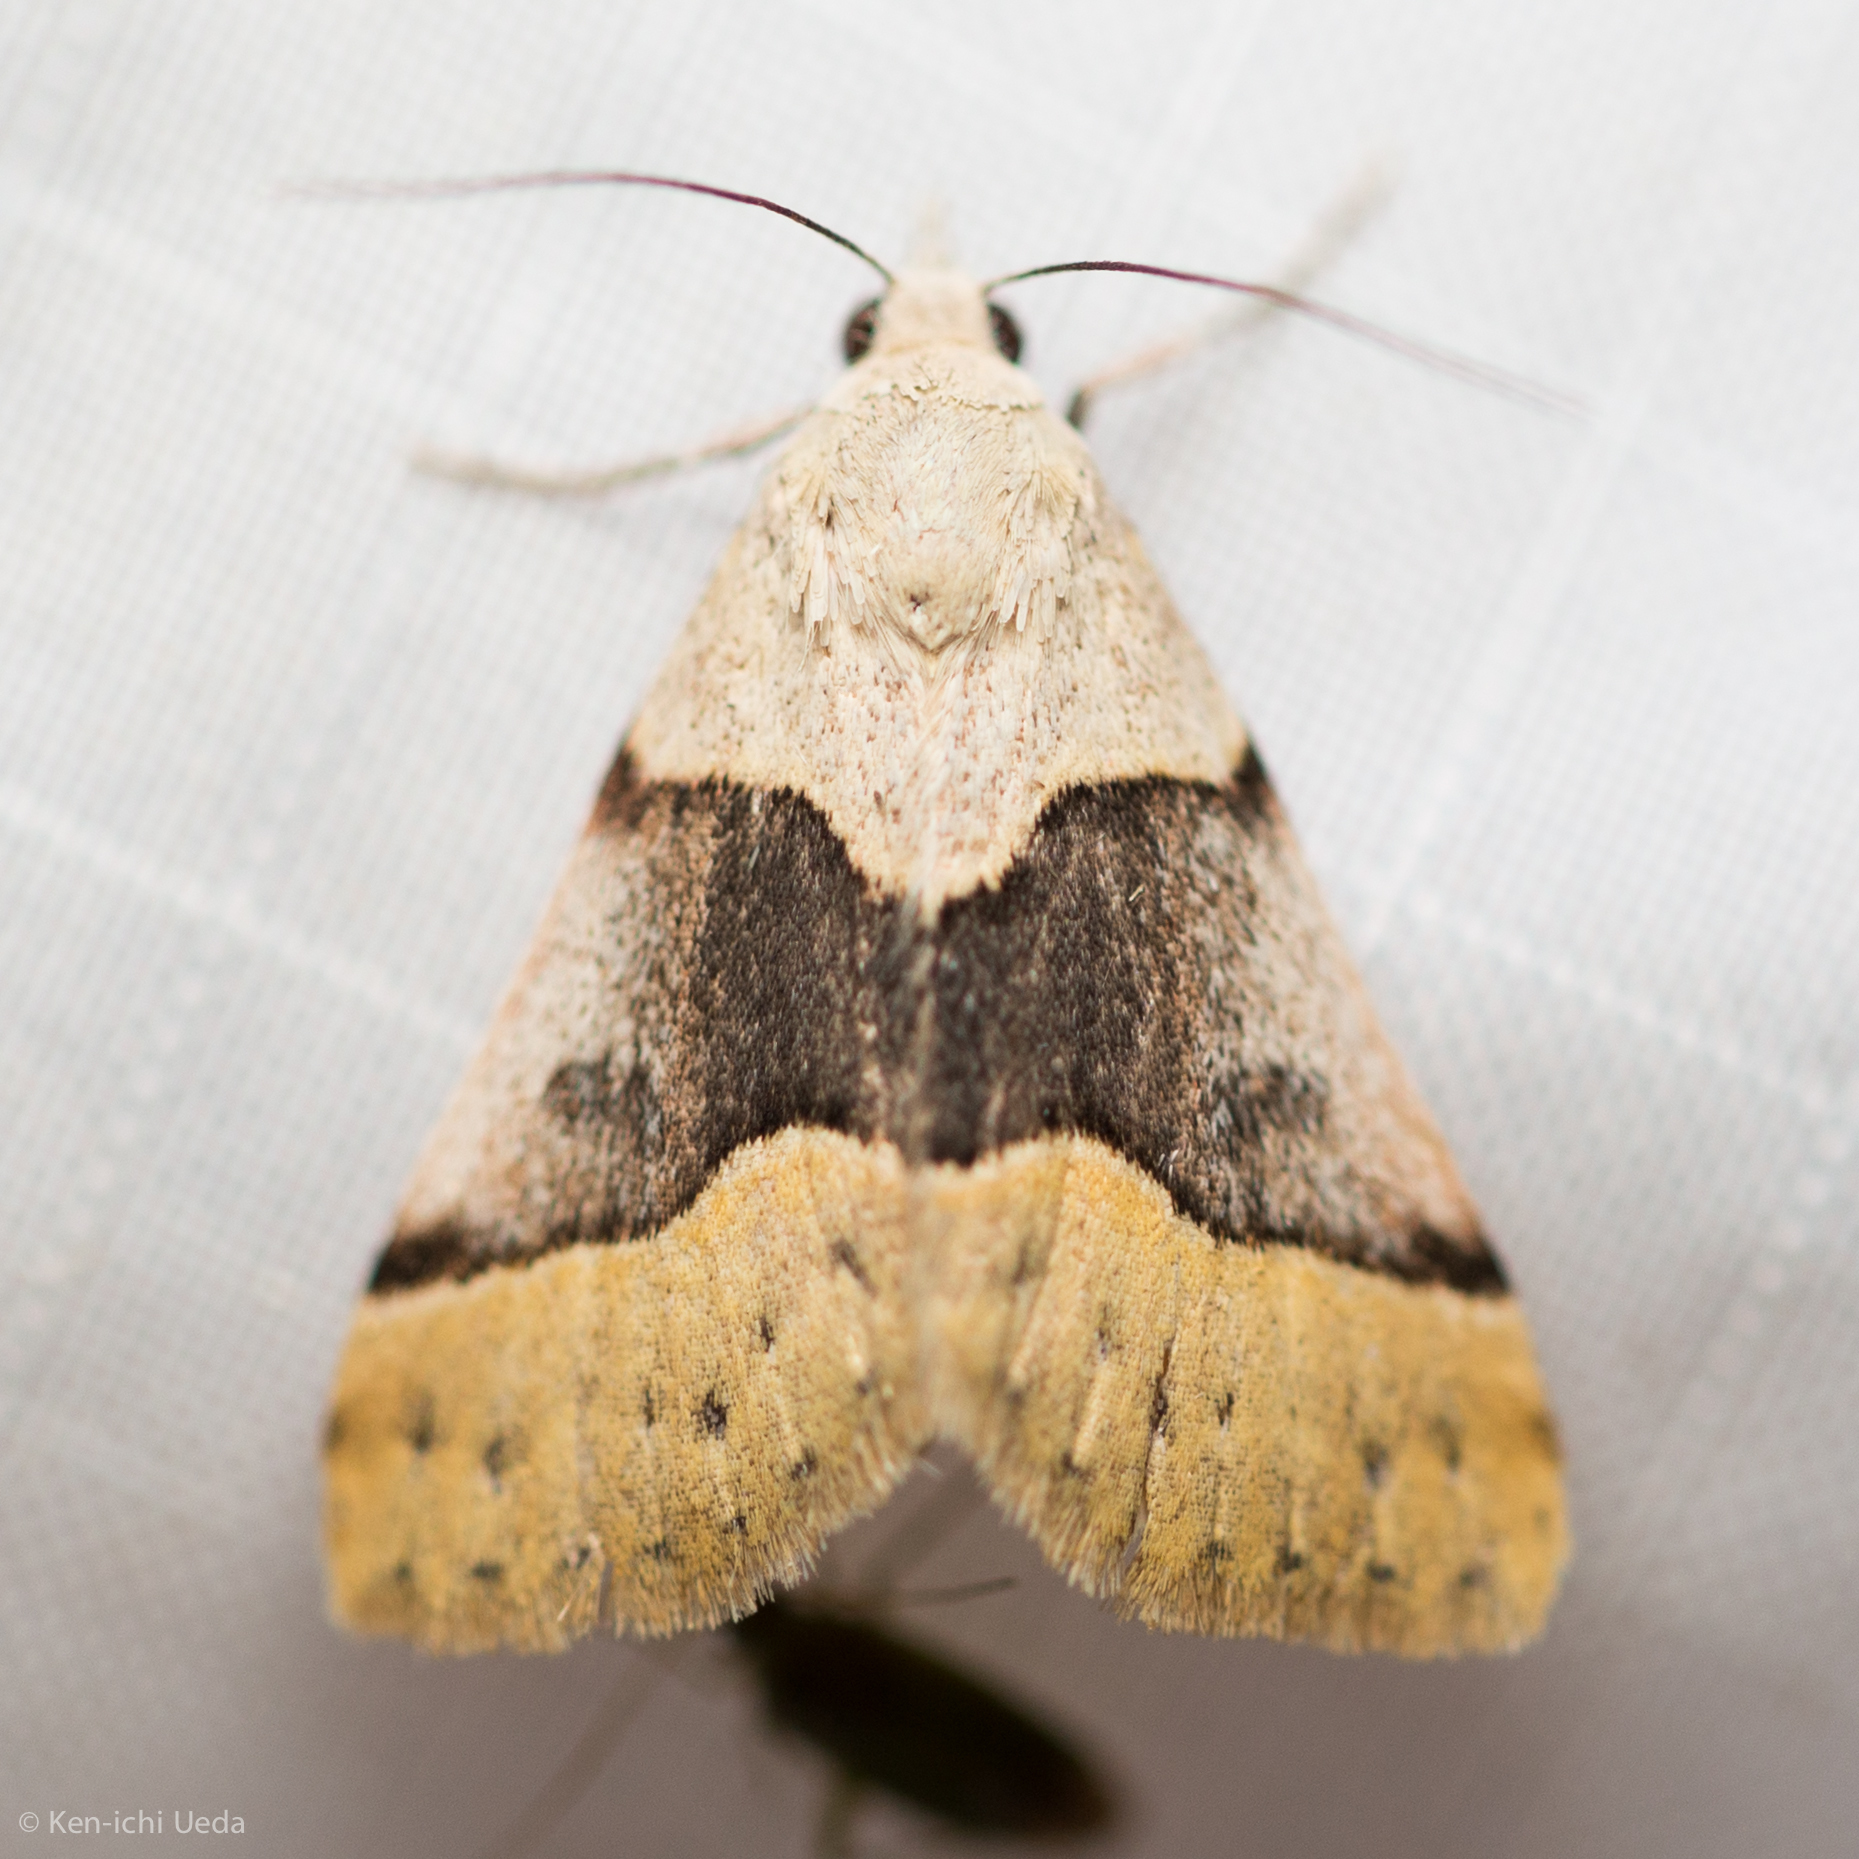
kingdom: Animalia
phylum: Arthropoda
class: Insecta
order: Lepidoptera
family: Erebidae
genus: Hemeroplanis
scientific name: Hemeroplanis incusalis
